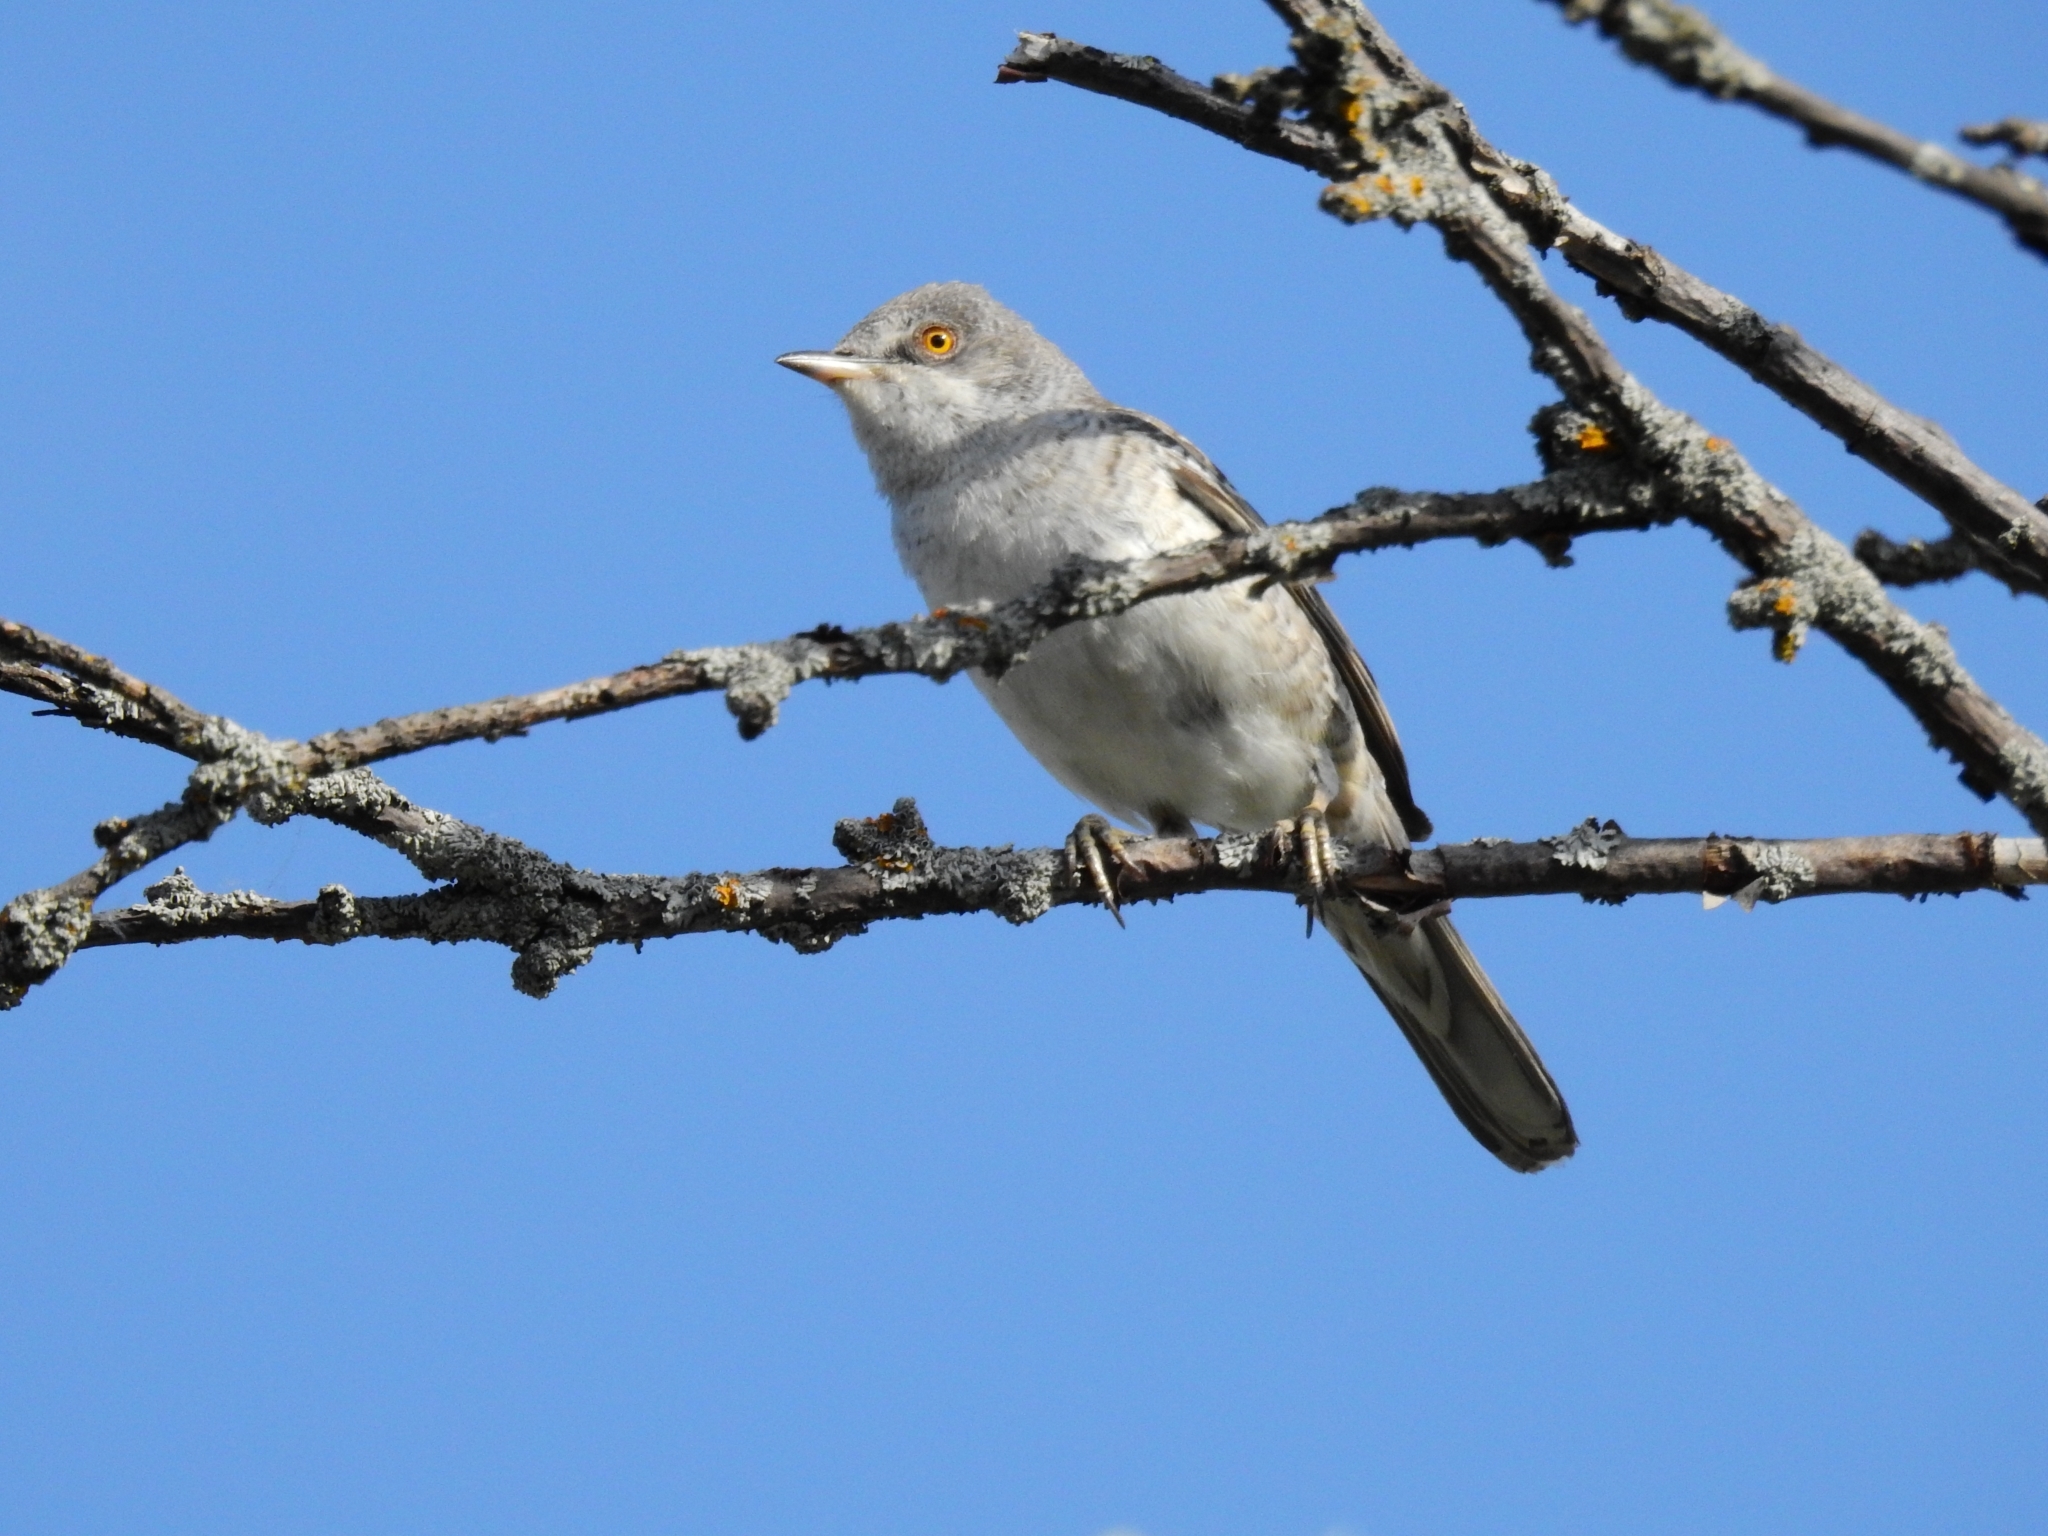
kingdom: Animalia
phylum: Chordata
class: Aves
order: Passeriformes
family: Sylviidae
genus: Sylvia
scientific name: Sylvia nisoria
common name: Barred warbler
